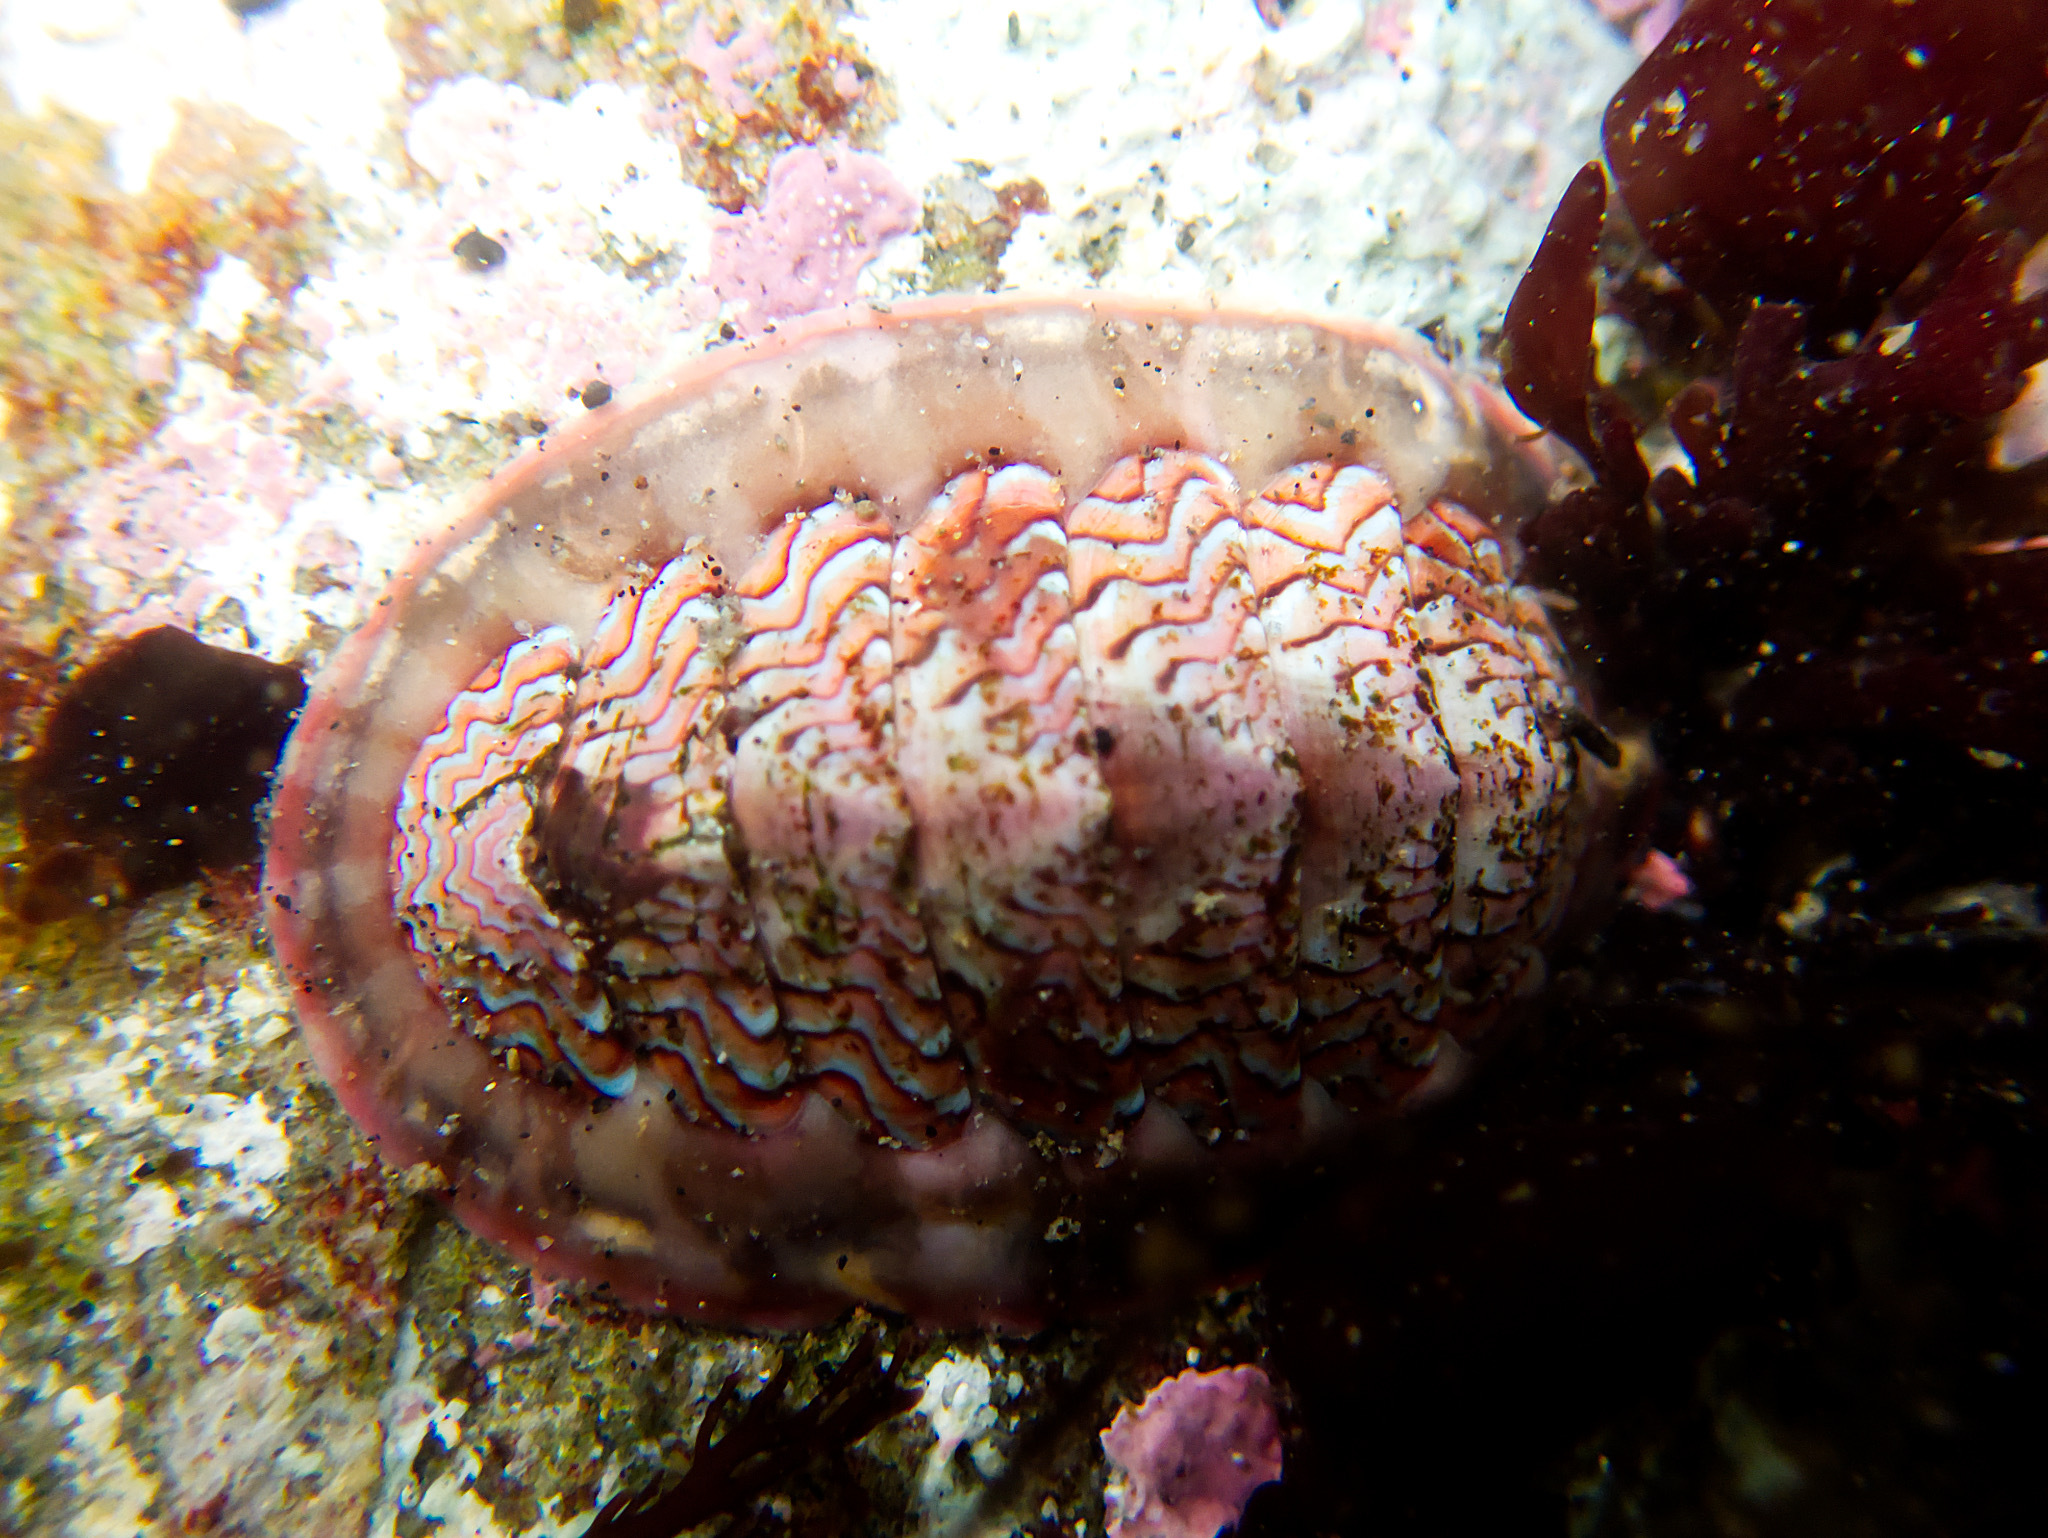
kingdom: Animalia
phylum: Mollusca
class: Polyplacophora
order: Chitonida
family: Tonicellidae
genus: Tonicella
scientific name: Tonicella lokii
